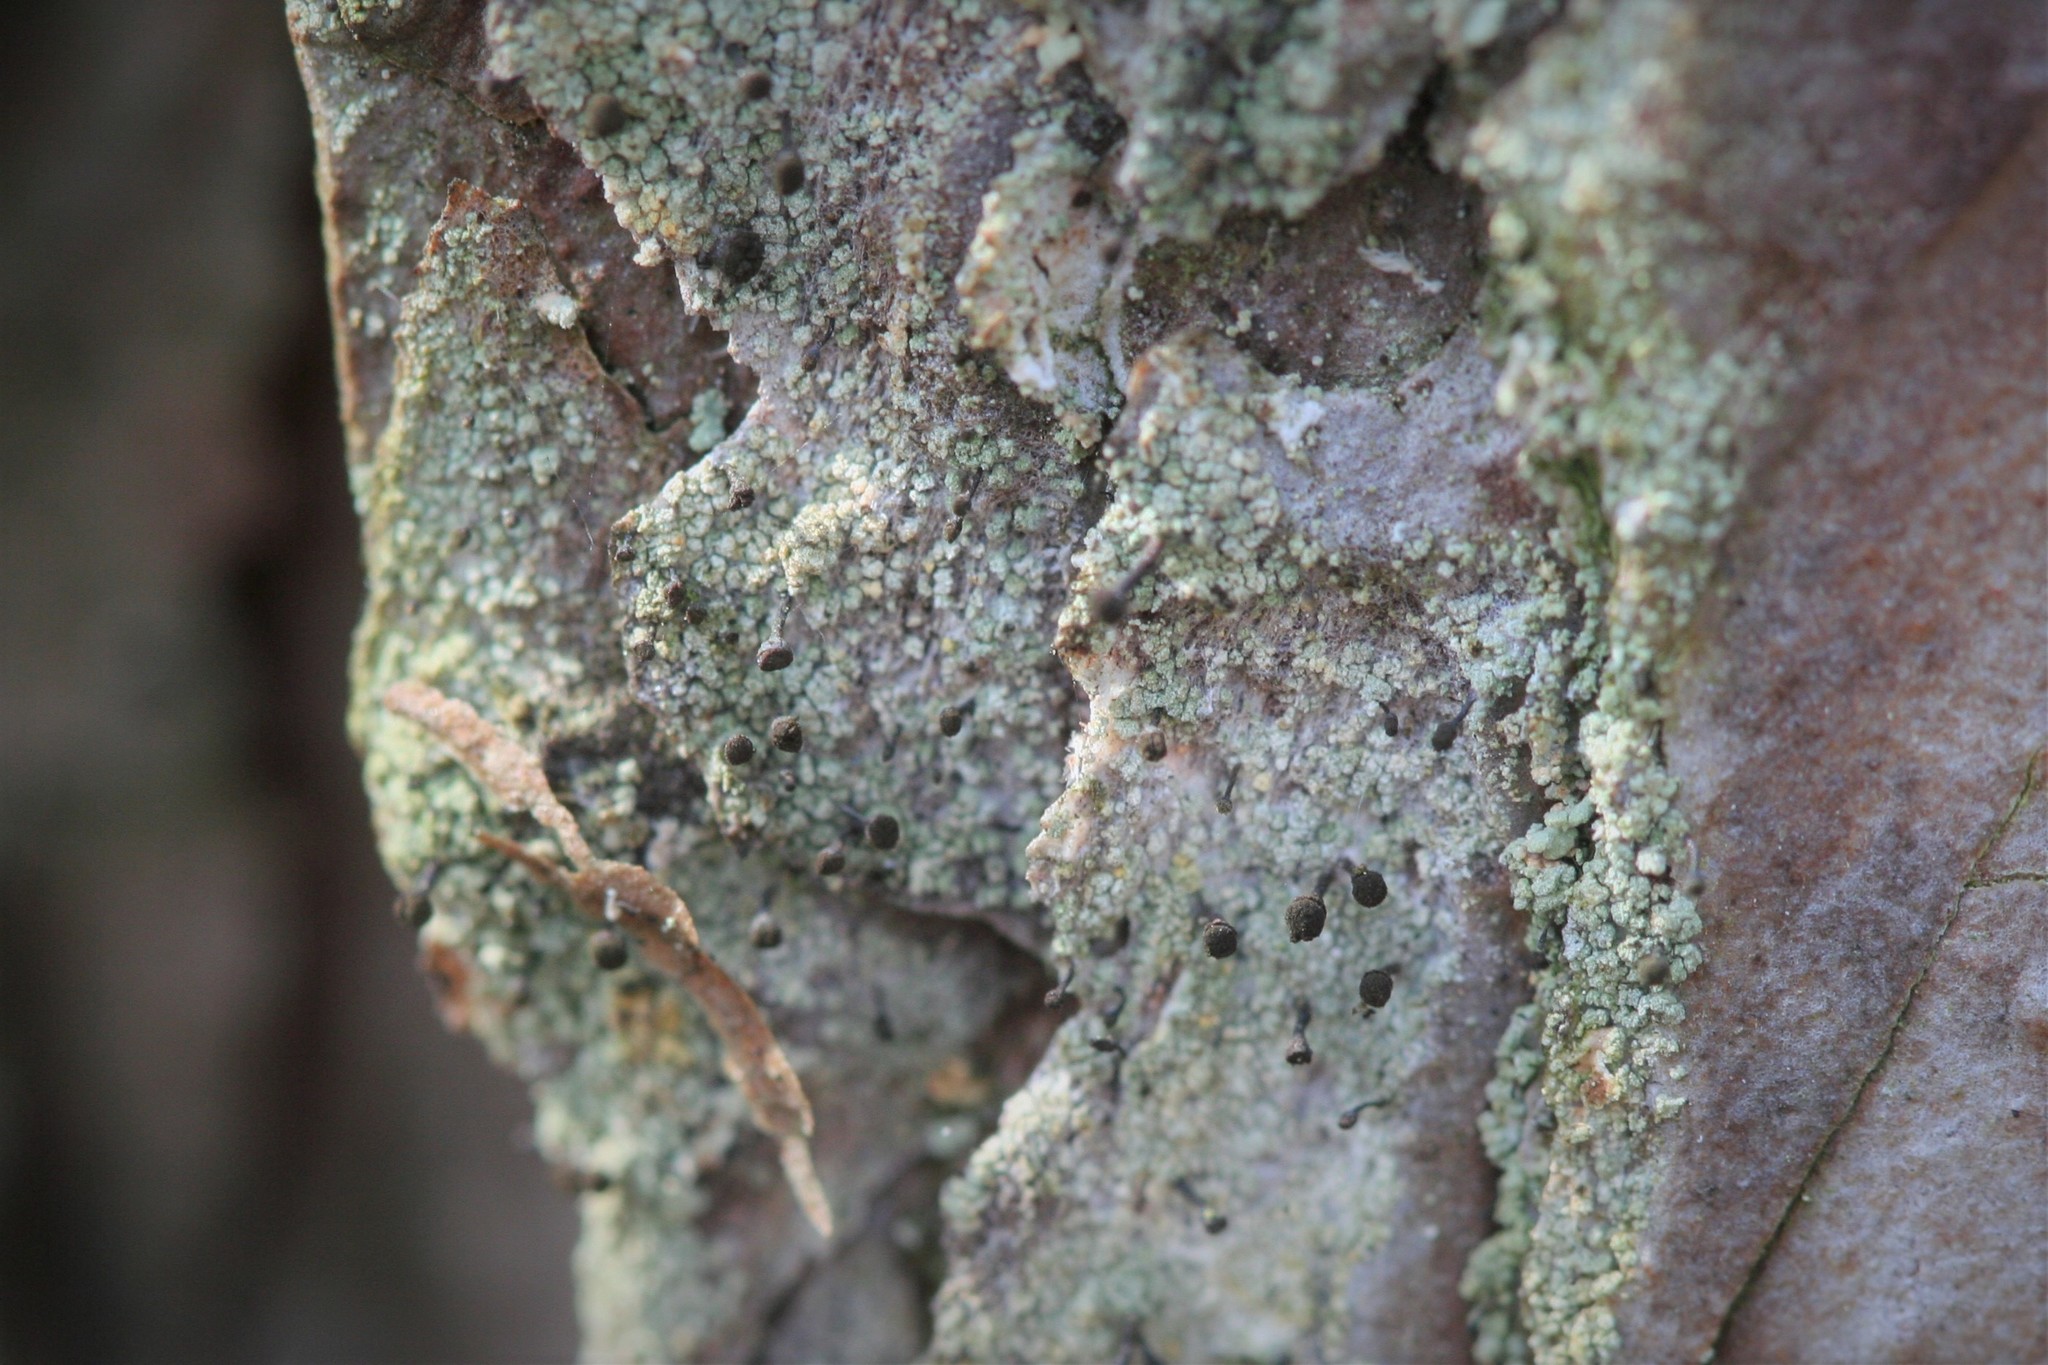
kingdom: Fungi
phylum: Ascomycota
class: Coniocybomycetes
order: Coniocybales
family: Coniocybaceae
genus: Chaenotheca
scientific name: Chaenotheca ferruginea
